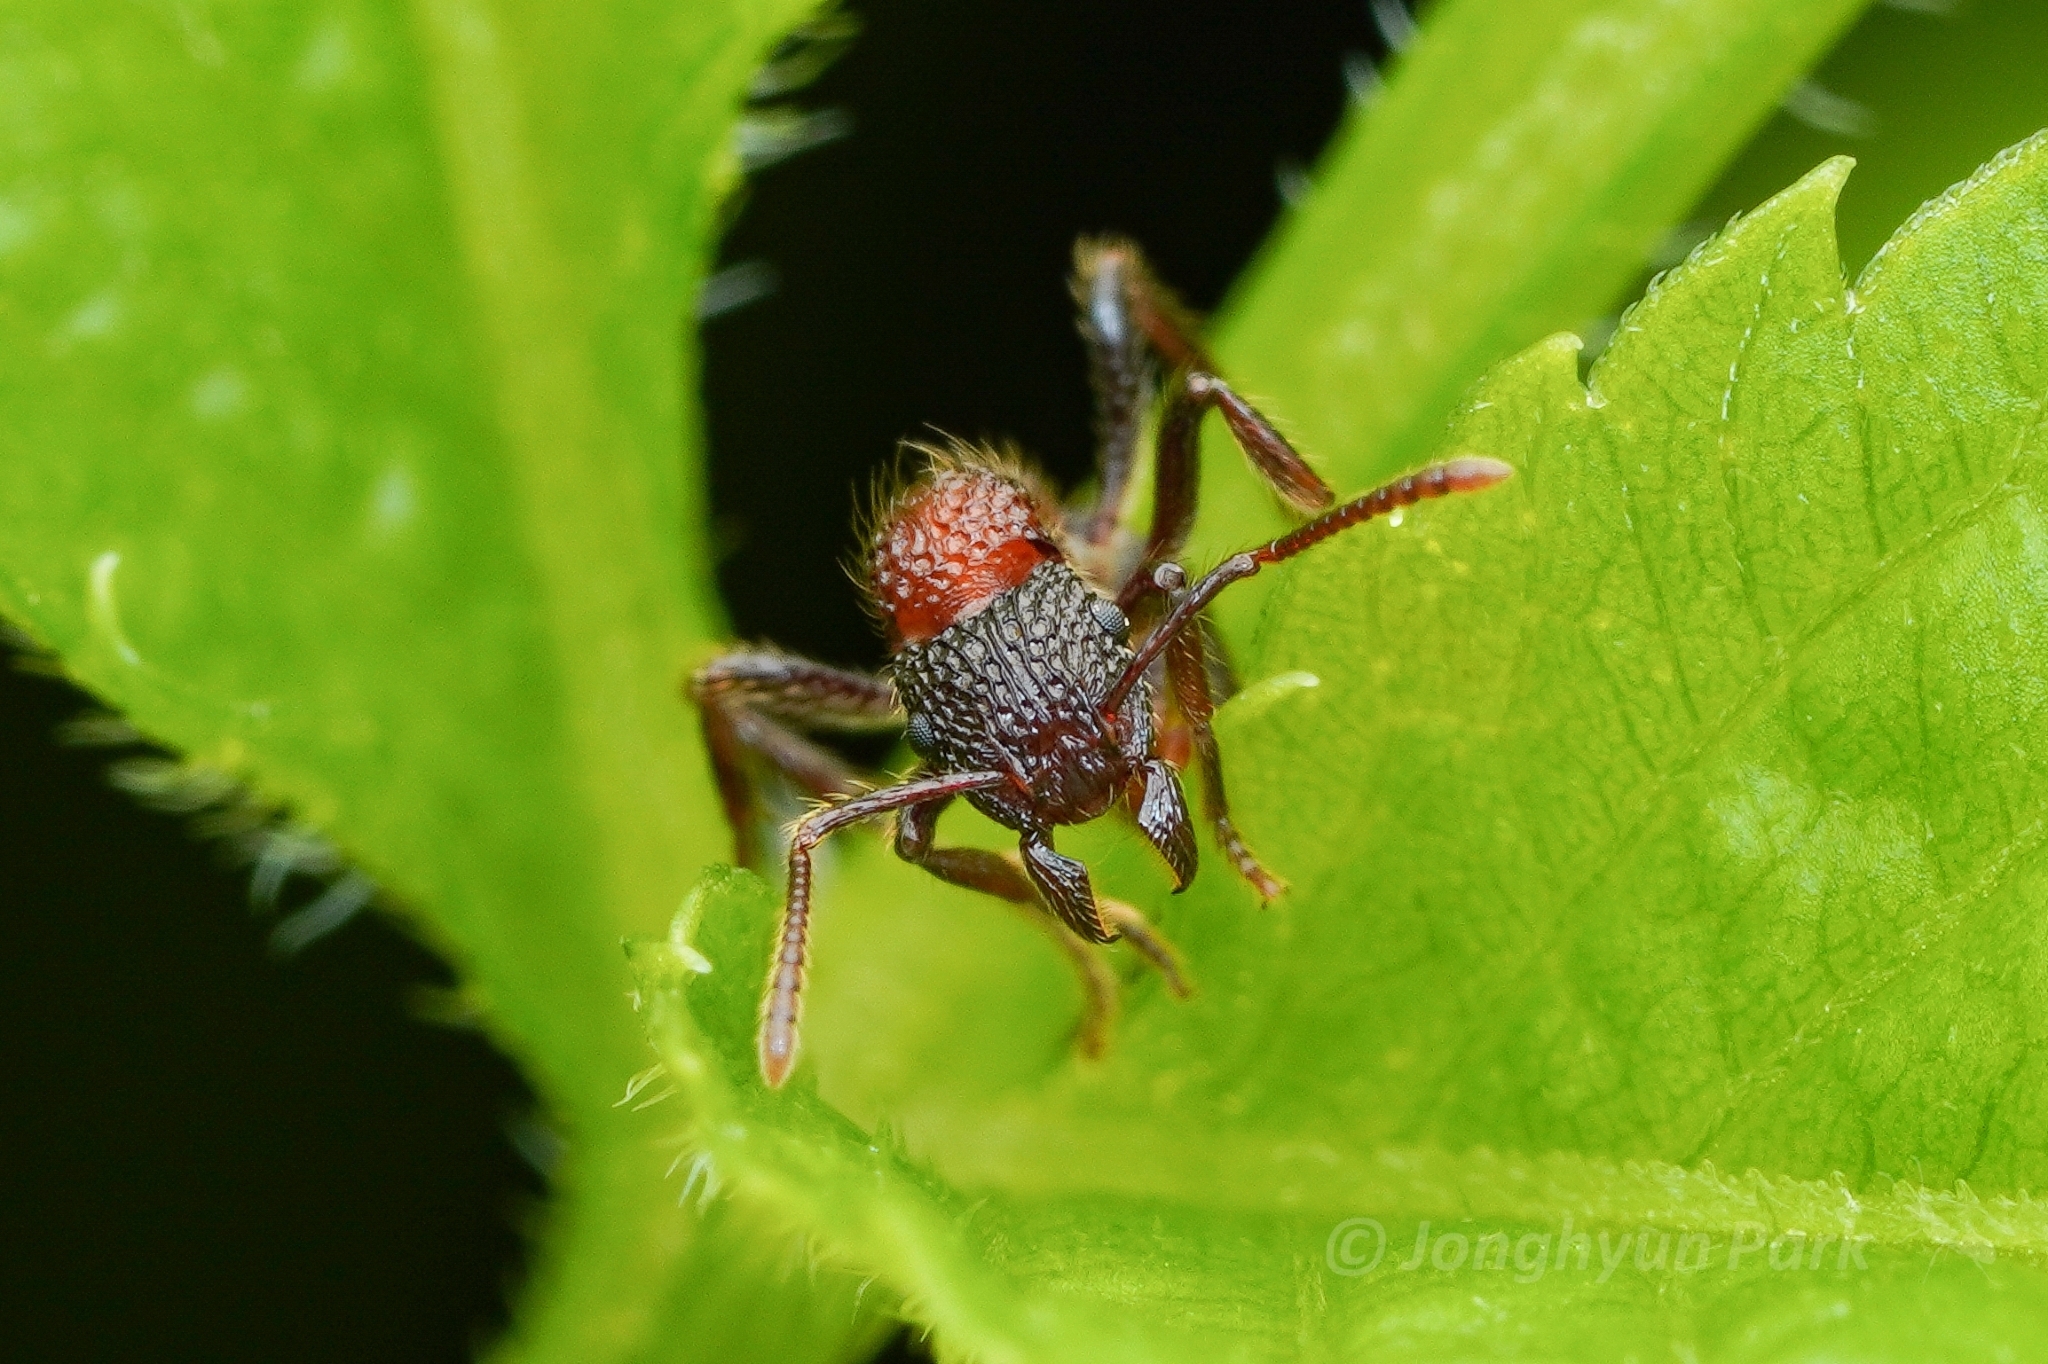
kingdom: Animalia
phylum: Arthropoda
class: Insecta
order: Hymenoptera
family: Formicidae
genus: Stictoponera
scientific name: Stictoponera bicolor
